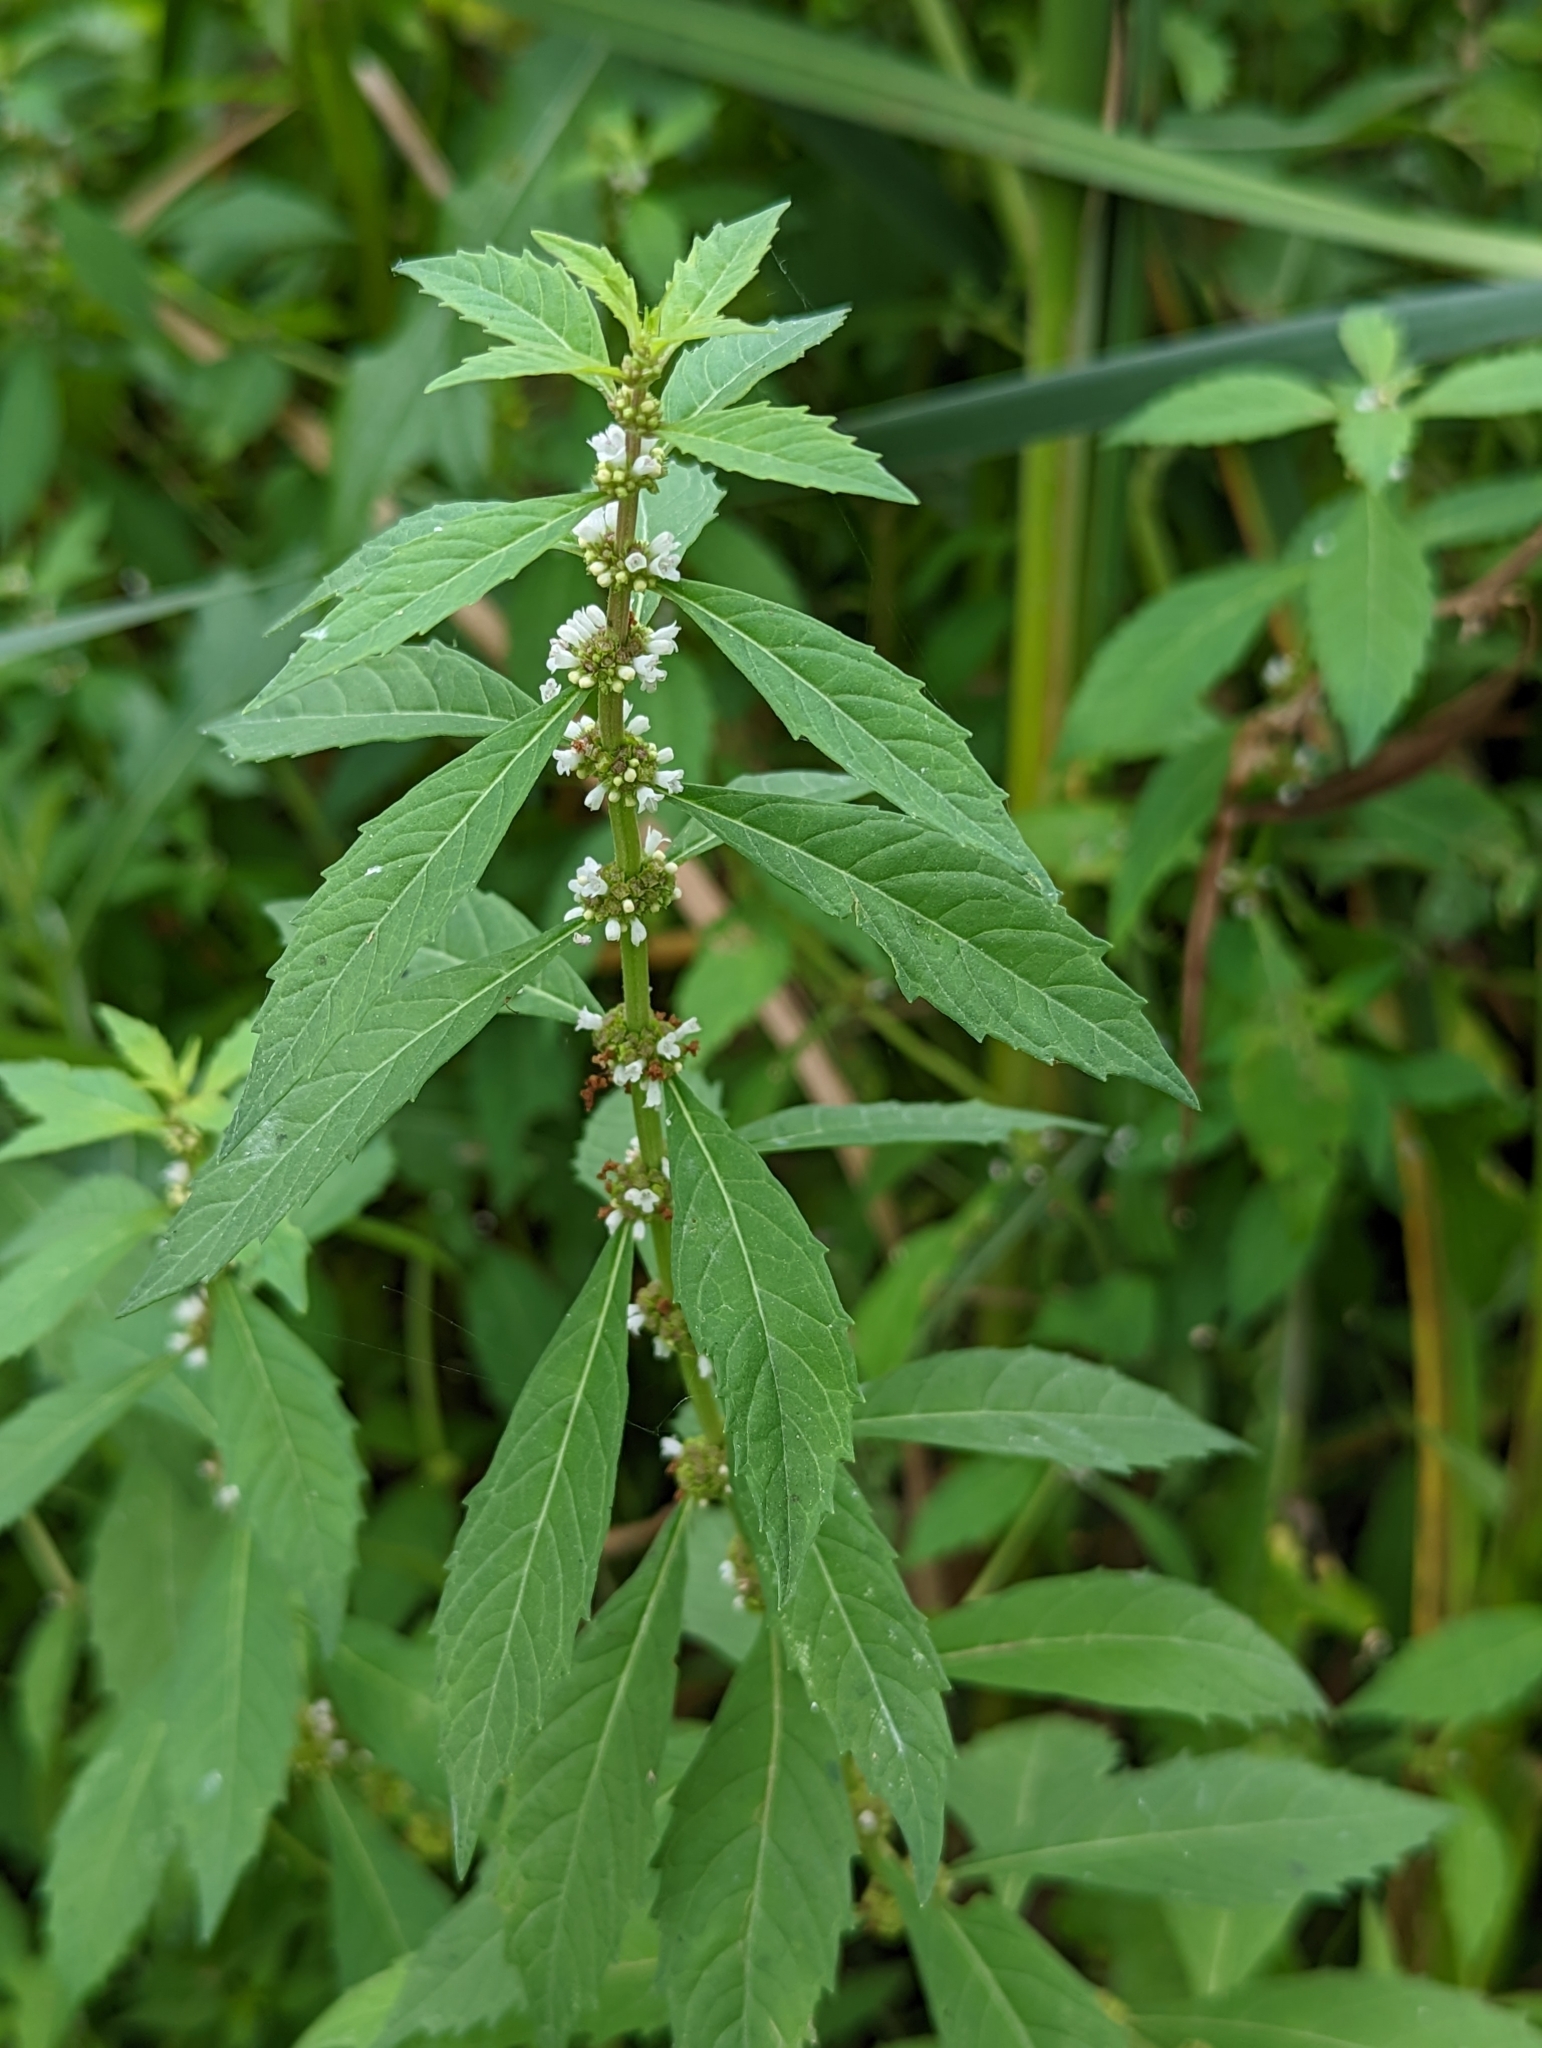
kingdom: Plantae
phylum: Tracheophyta
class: Magnoliopsida
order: Lamiales
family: Lamiaceae
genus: Lycopus
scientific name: Lycopus americanus
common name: American bugleweed
